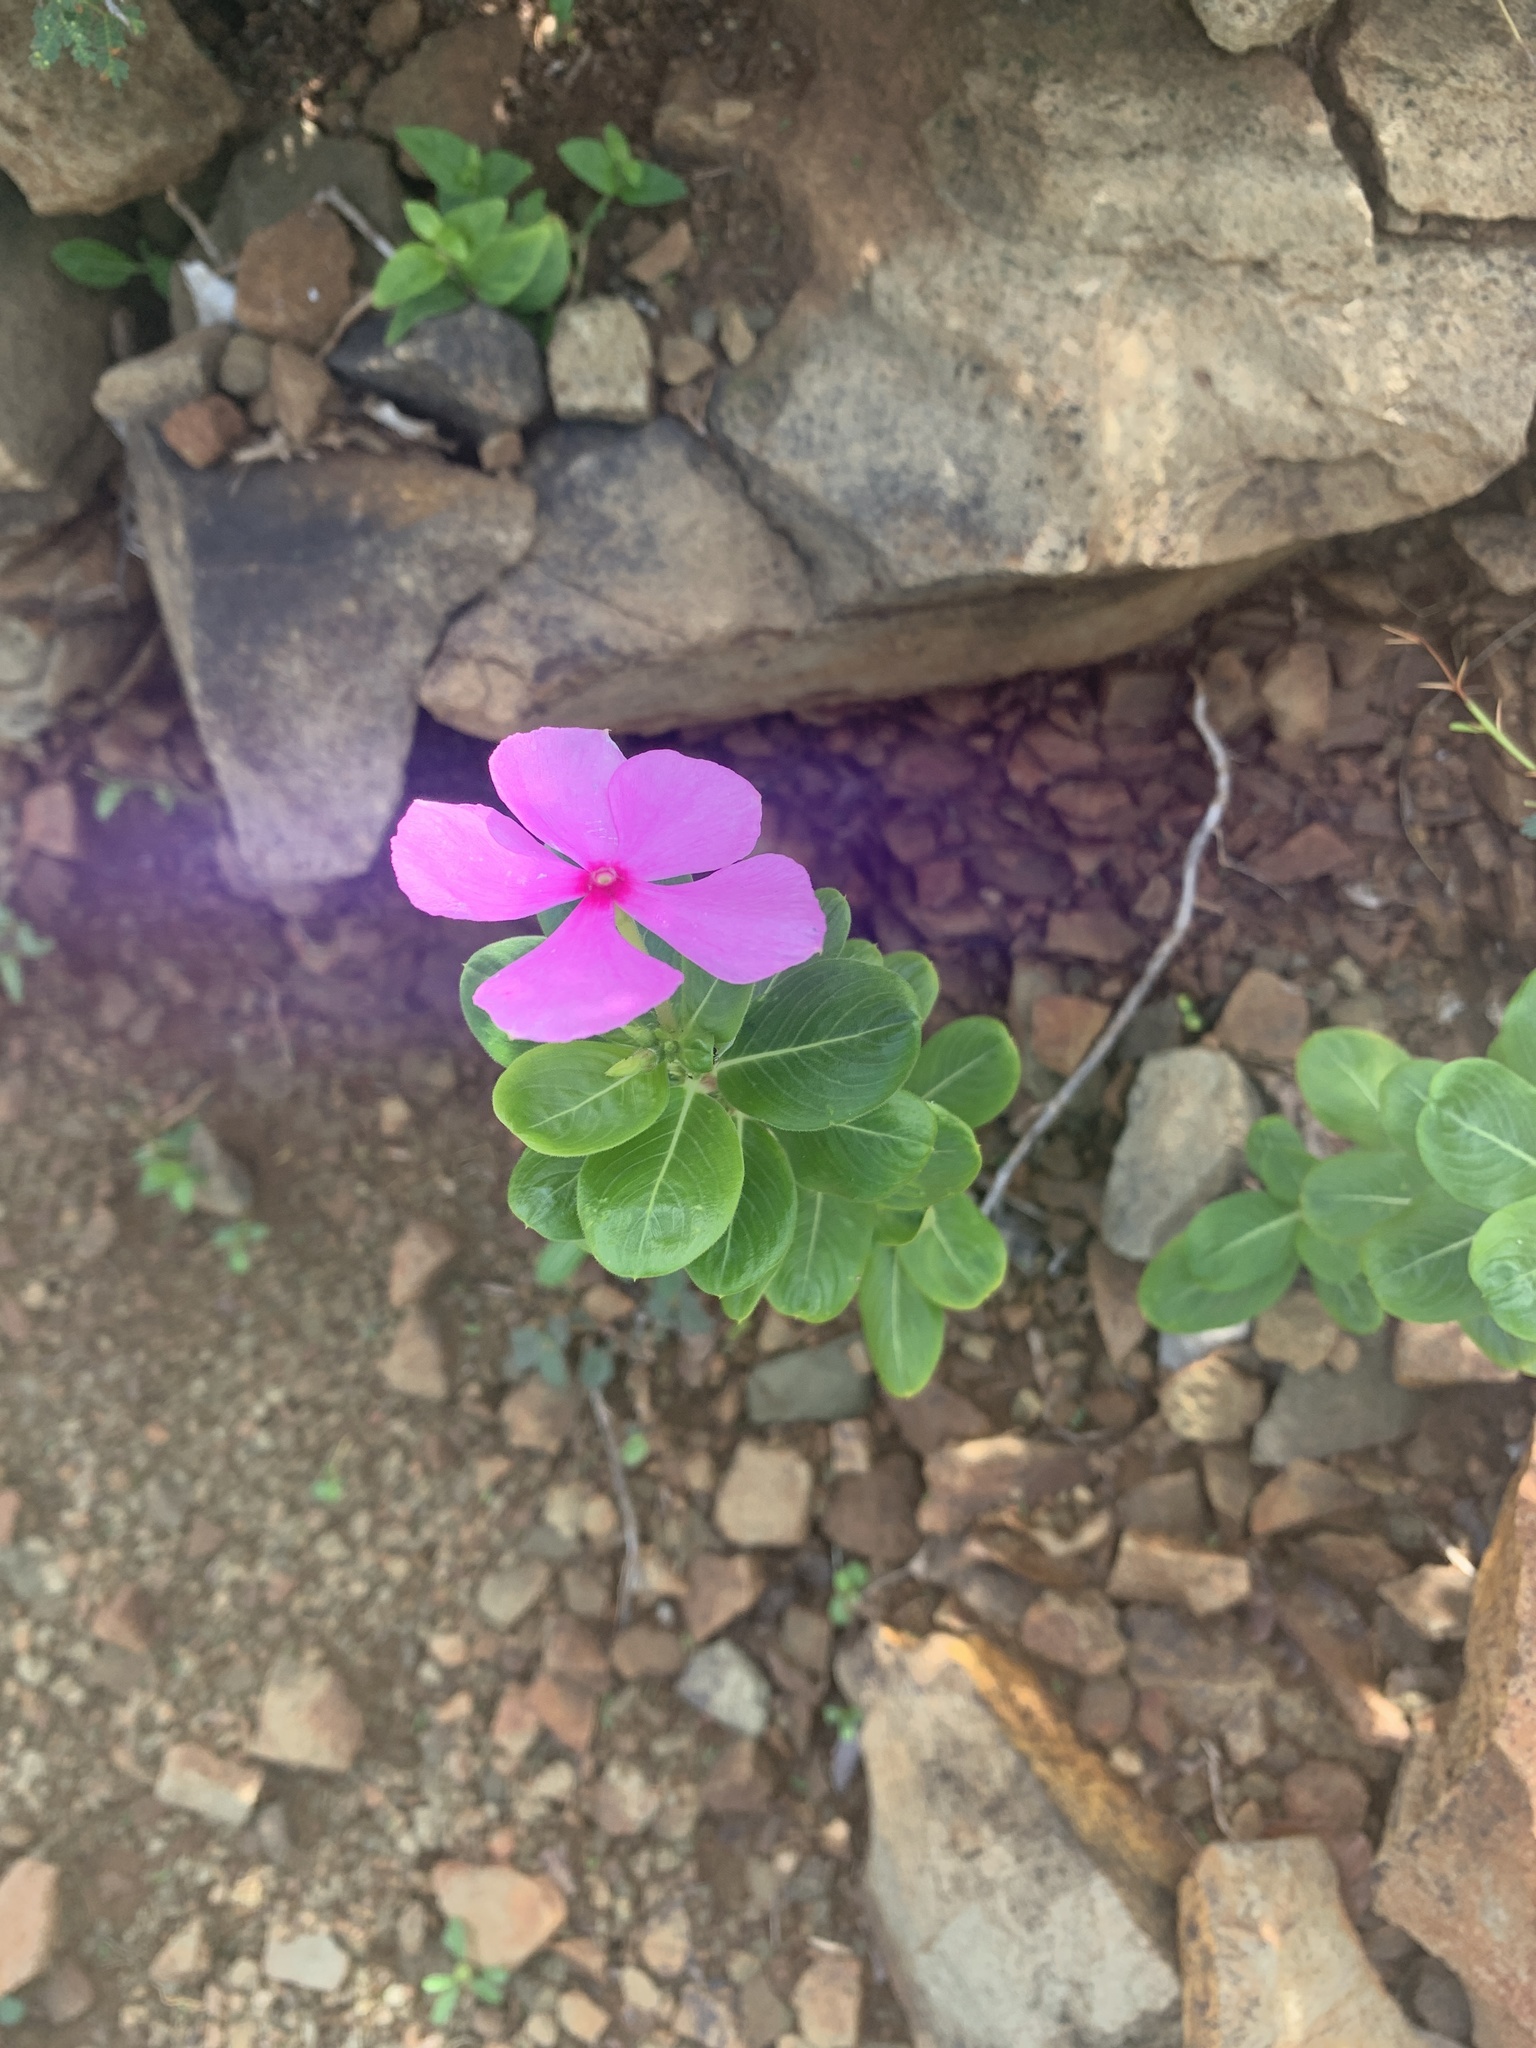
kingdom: Plantae
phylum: Tracheophyta
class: Magnoliopsida
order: Gentianales
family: Apocynaceae
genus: Catharanthus
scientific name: Catharanthus roseus
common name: Madagascar periwinkle
